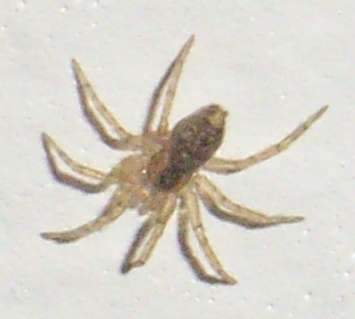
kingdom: Animalia
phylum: Arthropoda
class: Arachnida
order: Araneae
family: Oecobiidae
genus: Oecobius
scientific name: Oecobius navus
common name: Flatmesh weaver
